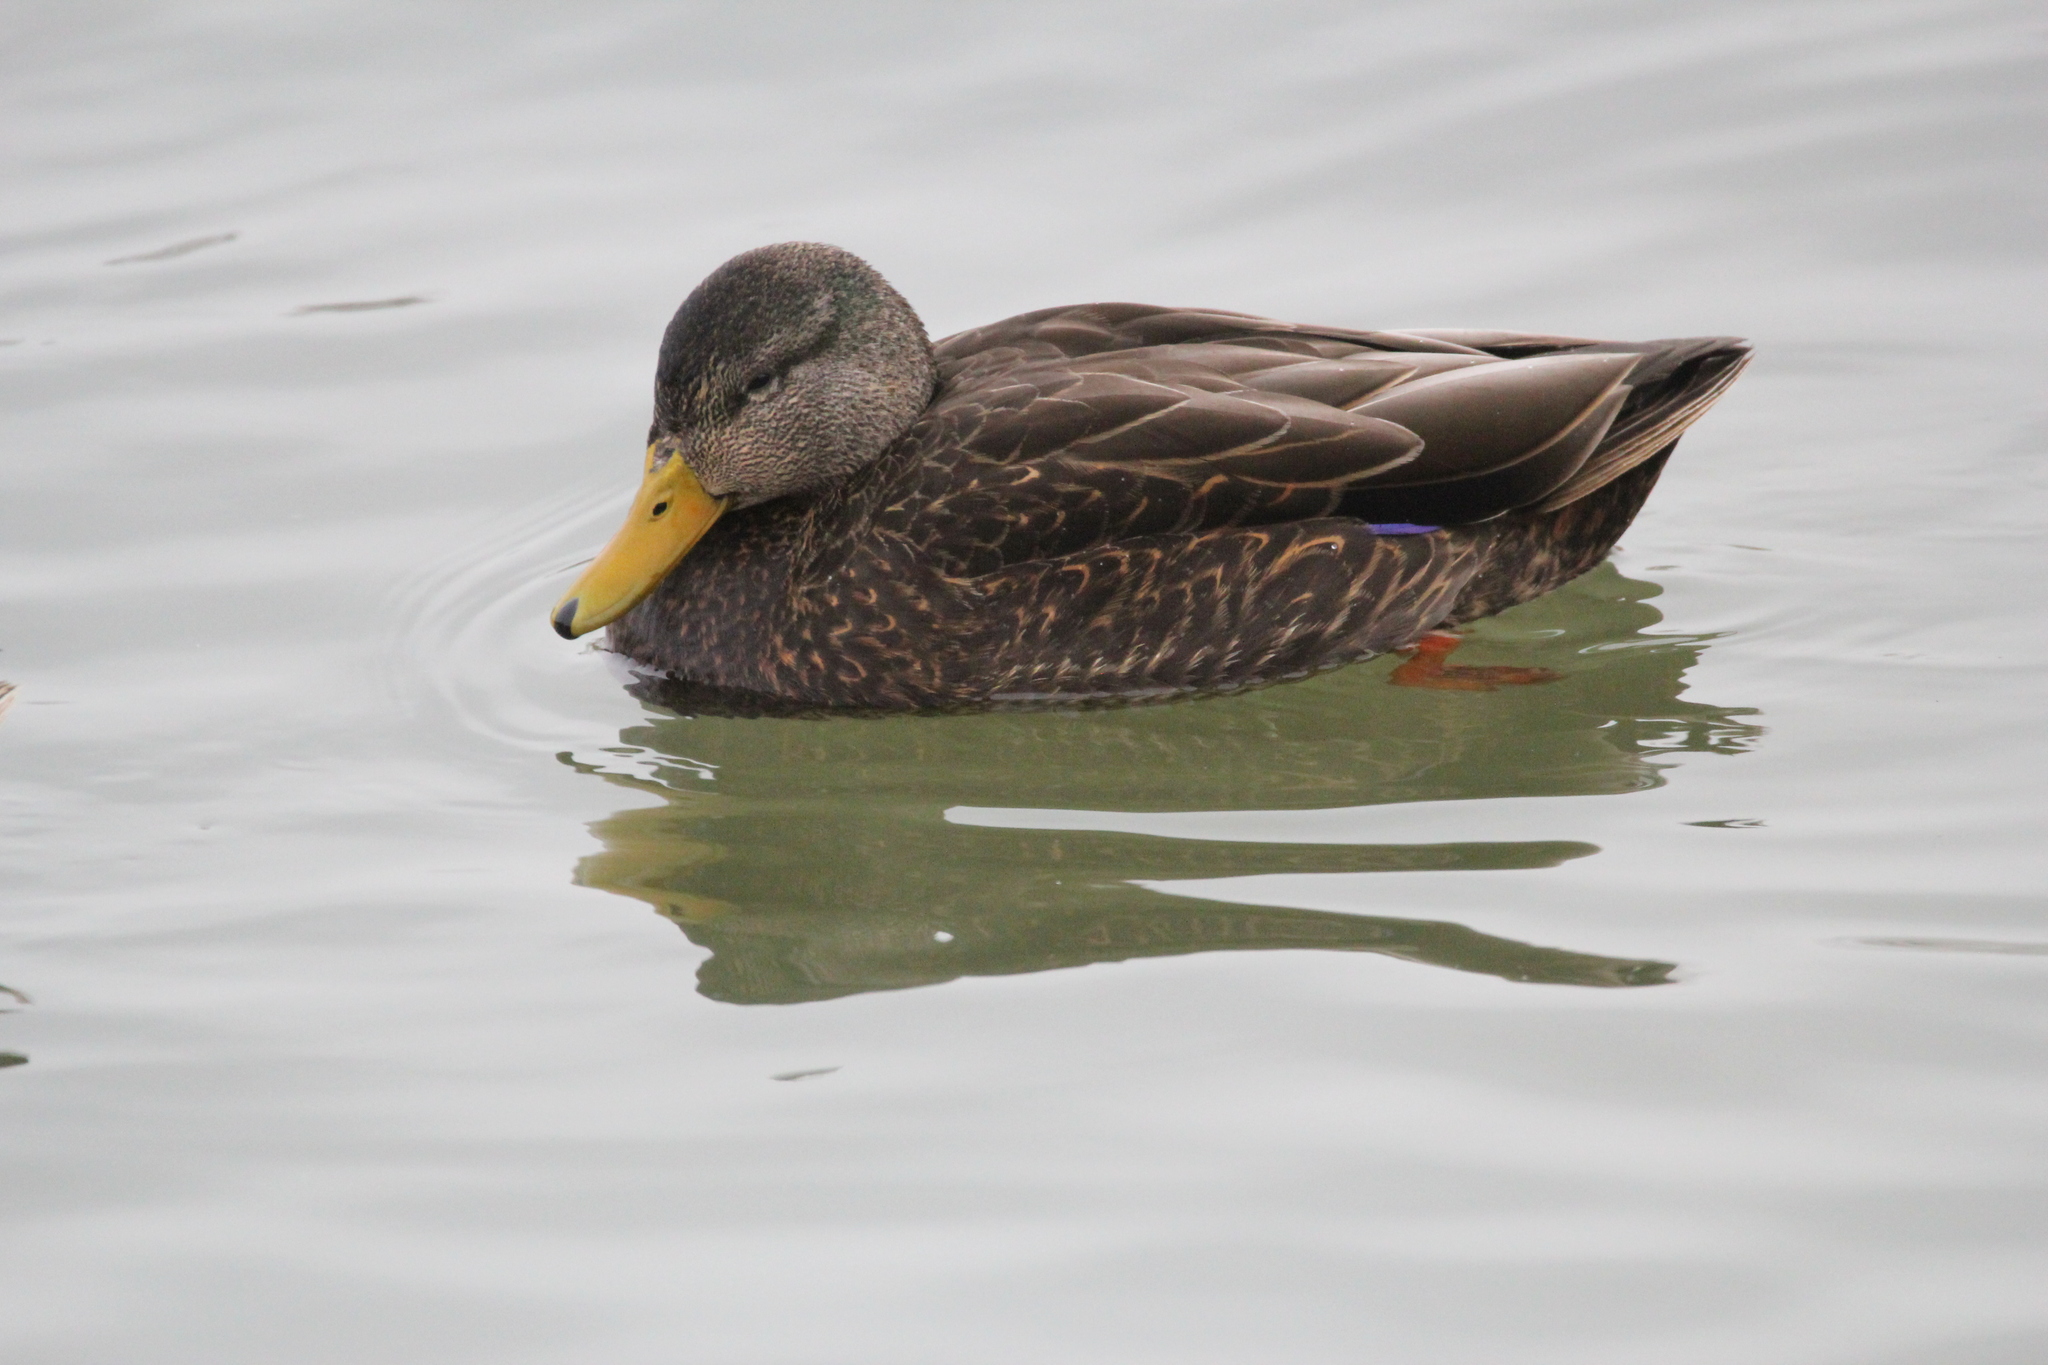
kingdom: Animalia
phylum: Chordata
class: Aves
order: Anseriformes
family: Anatidae
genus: Anas
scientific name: Anas rubripes
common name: American black duck
